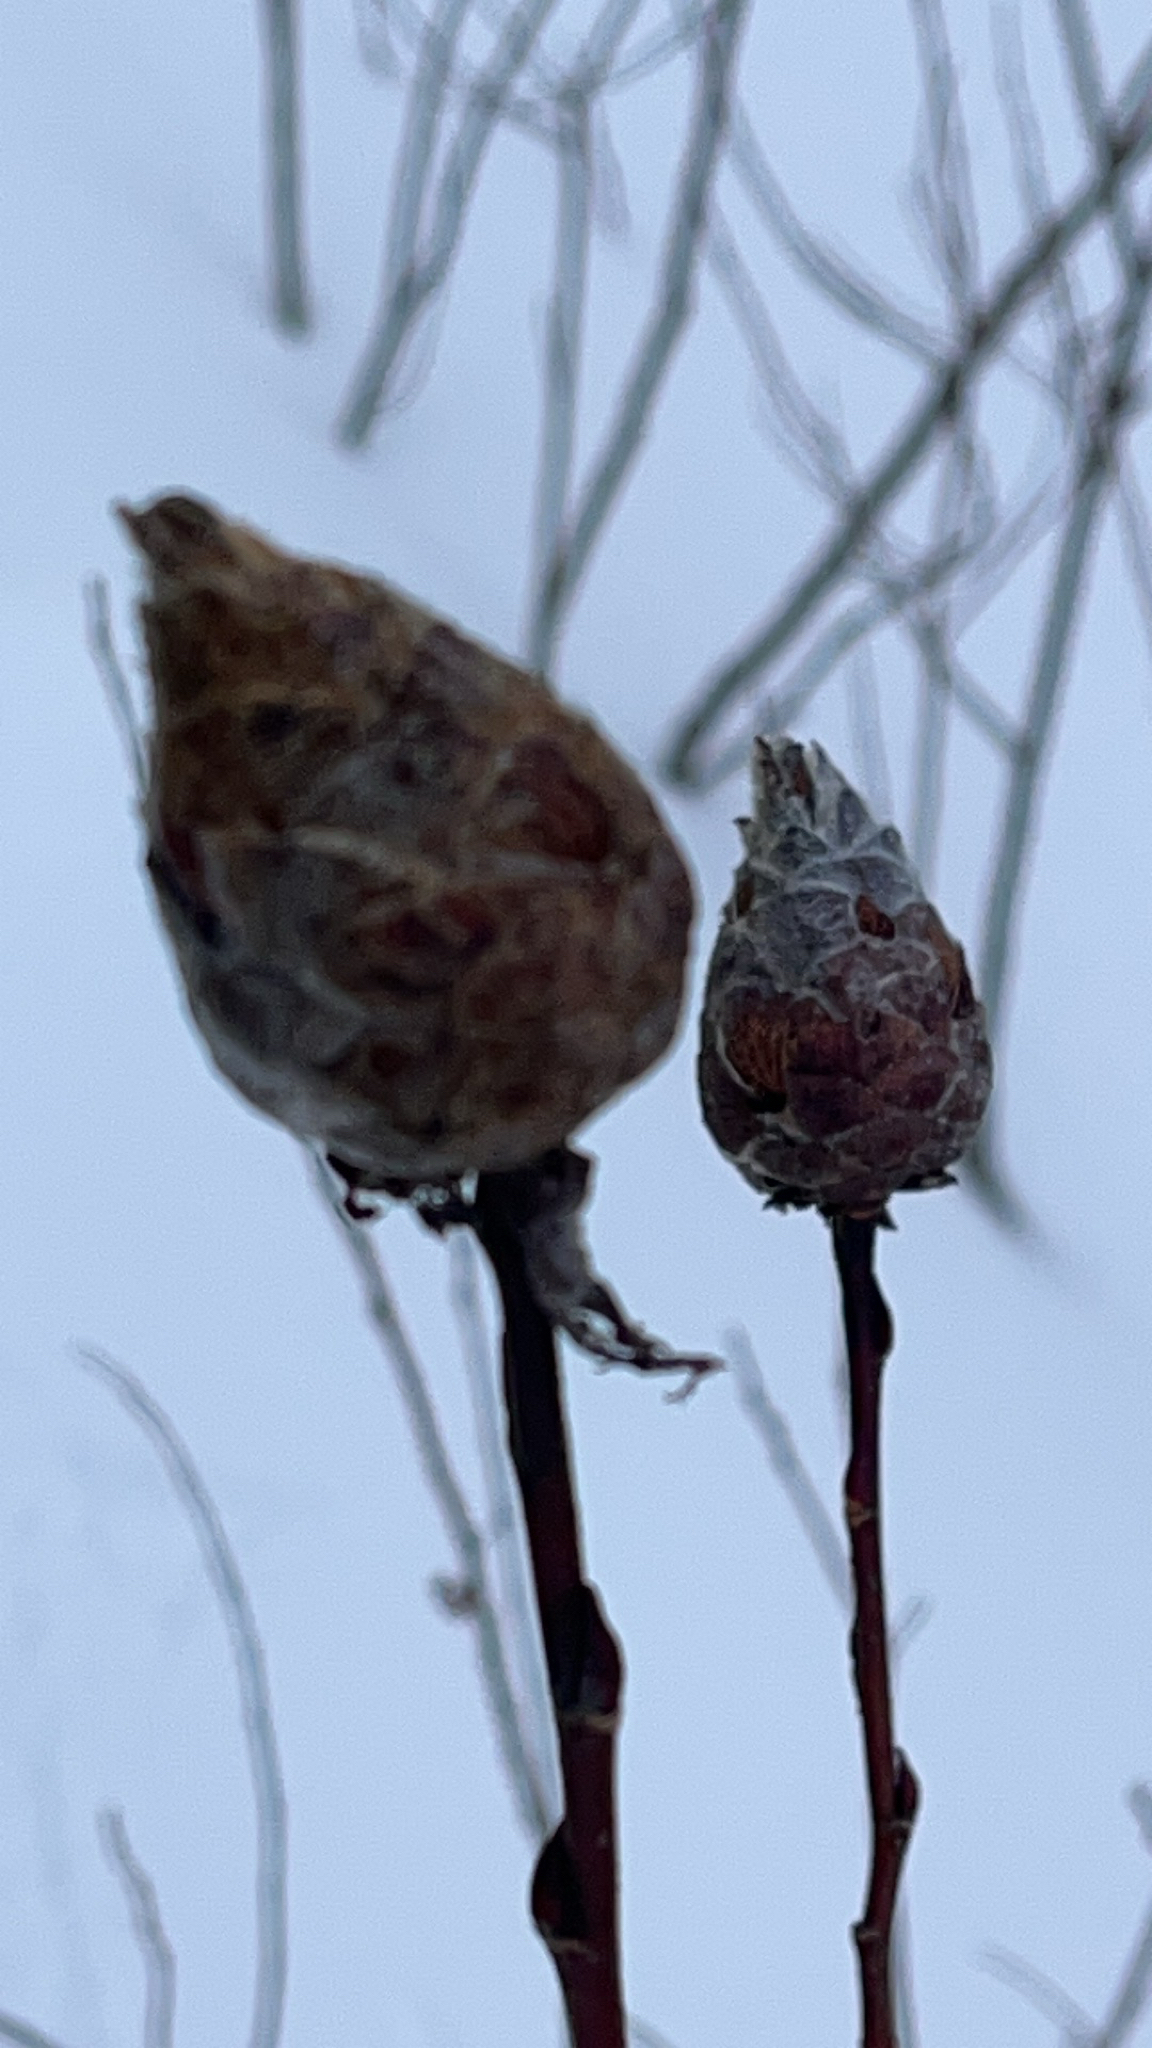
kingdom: Animalia
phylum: Arthropoda
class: Insecta
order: Diptera
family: Cecidomyiidae
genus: Rabdophaga
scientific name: Rabdophaga strobiloides
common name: Willow pinecone gall midge
